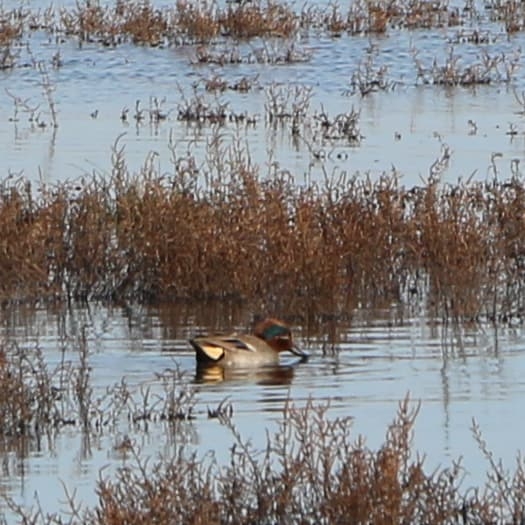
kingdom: Animalia
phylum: Chordata
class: Aves
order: Anseriformes
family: Anatidae
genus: Anas
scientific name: Anas crecca
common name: Eurasian teal
